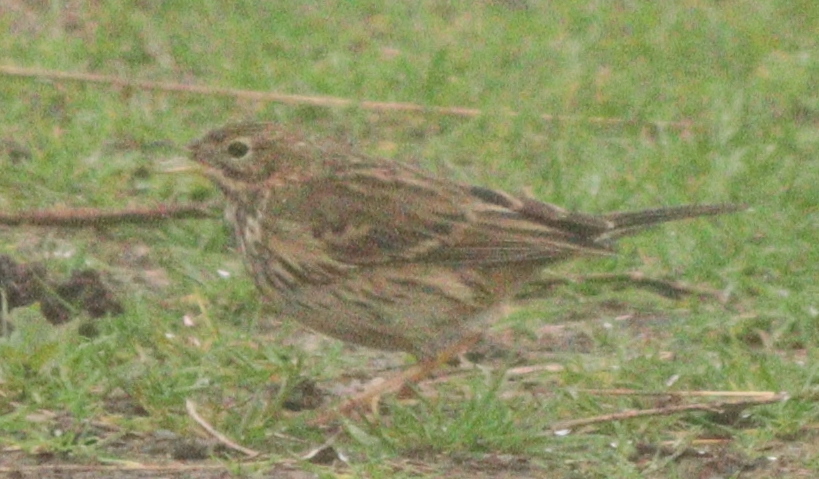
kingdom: Animalia
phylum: Chordata
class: Aves
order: Passeriformes
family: Motacillidae
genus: Anthus
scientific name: Anthus pratensis
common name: Meadow pipit
